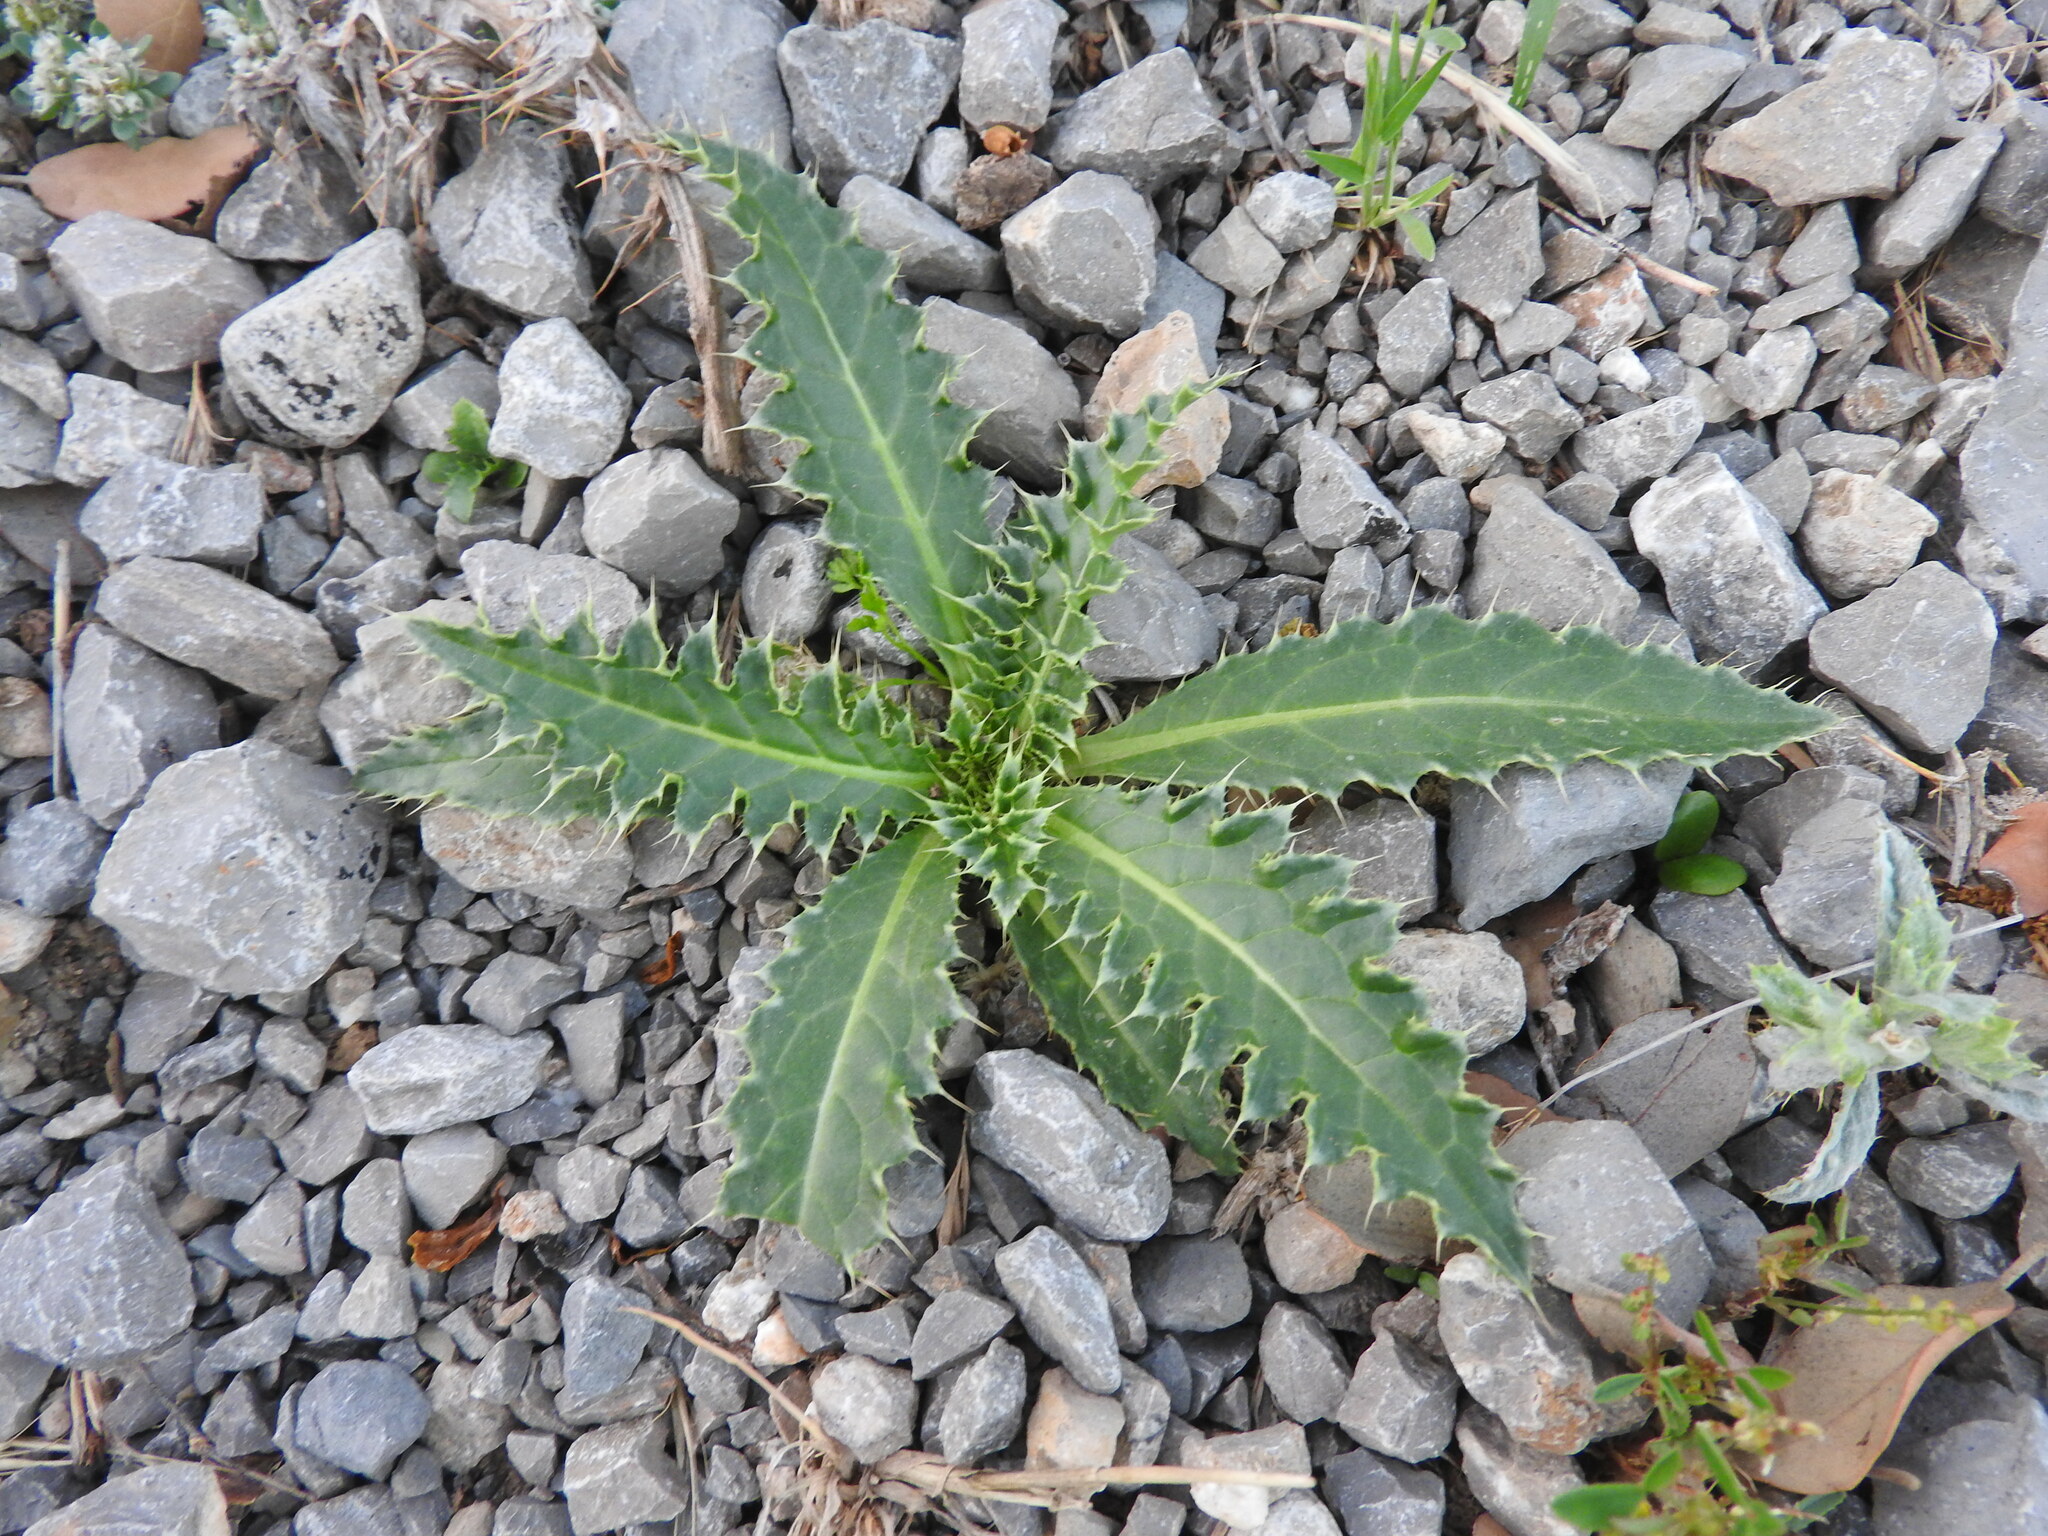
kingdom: Plantae
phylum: Tracheophyta
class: Magnoliopsida
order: Asterales
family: Asteraceae
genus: Carduus
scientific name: Carduus macrocephalus
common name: Giant thistle
